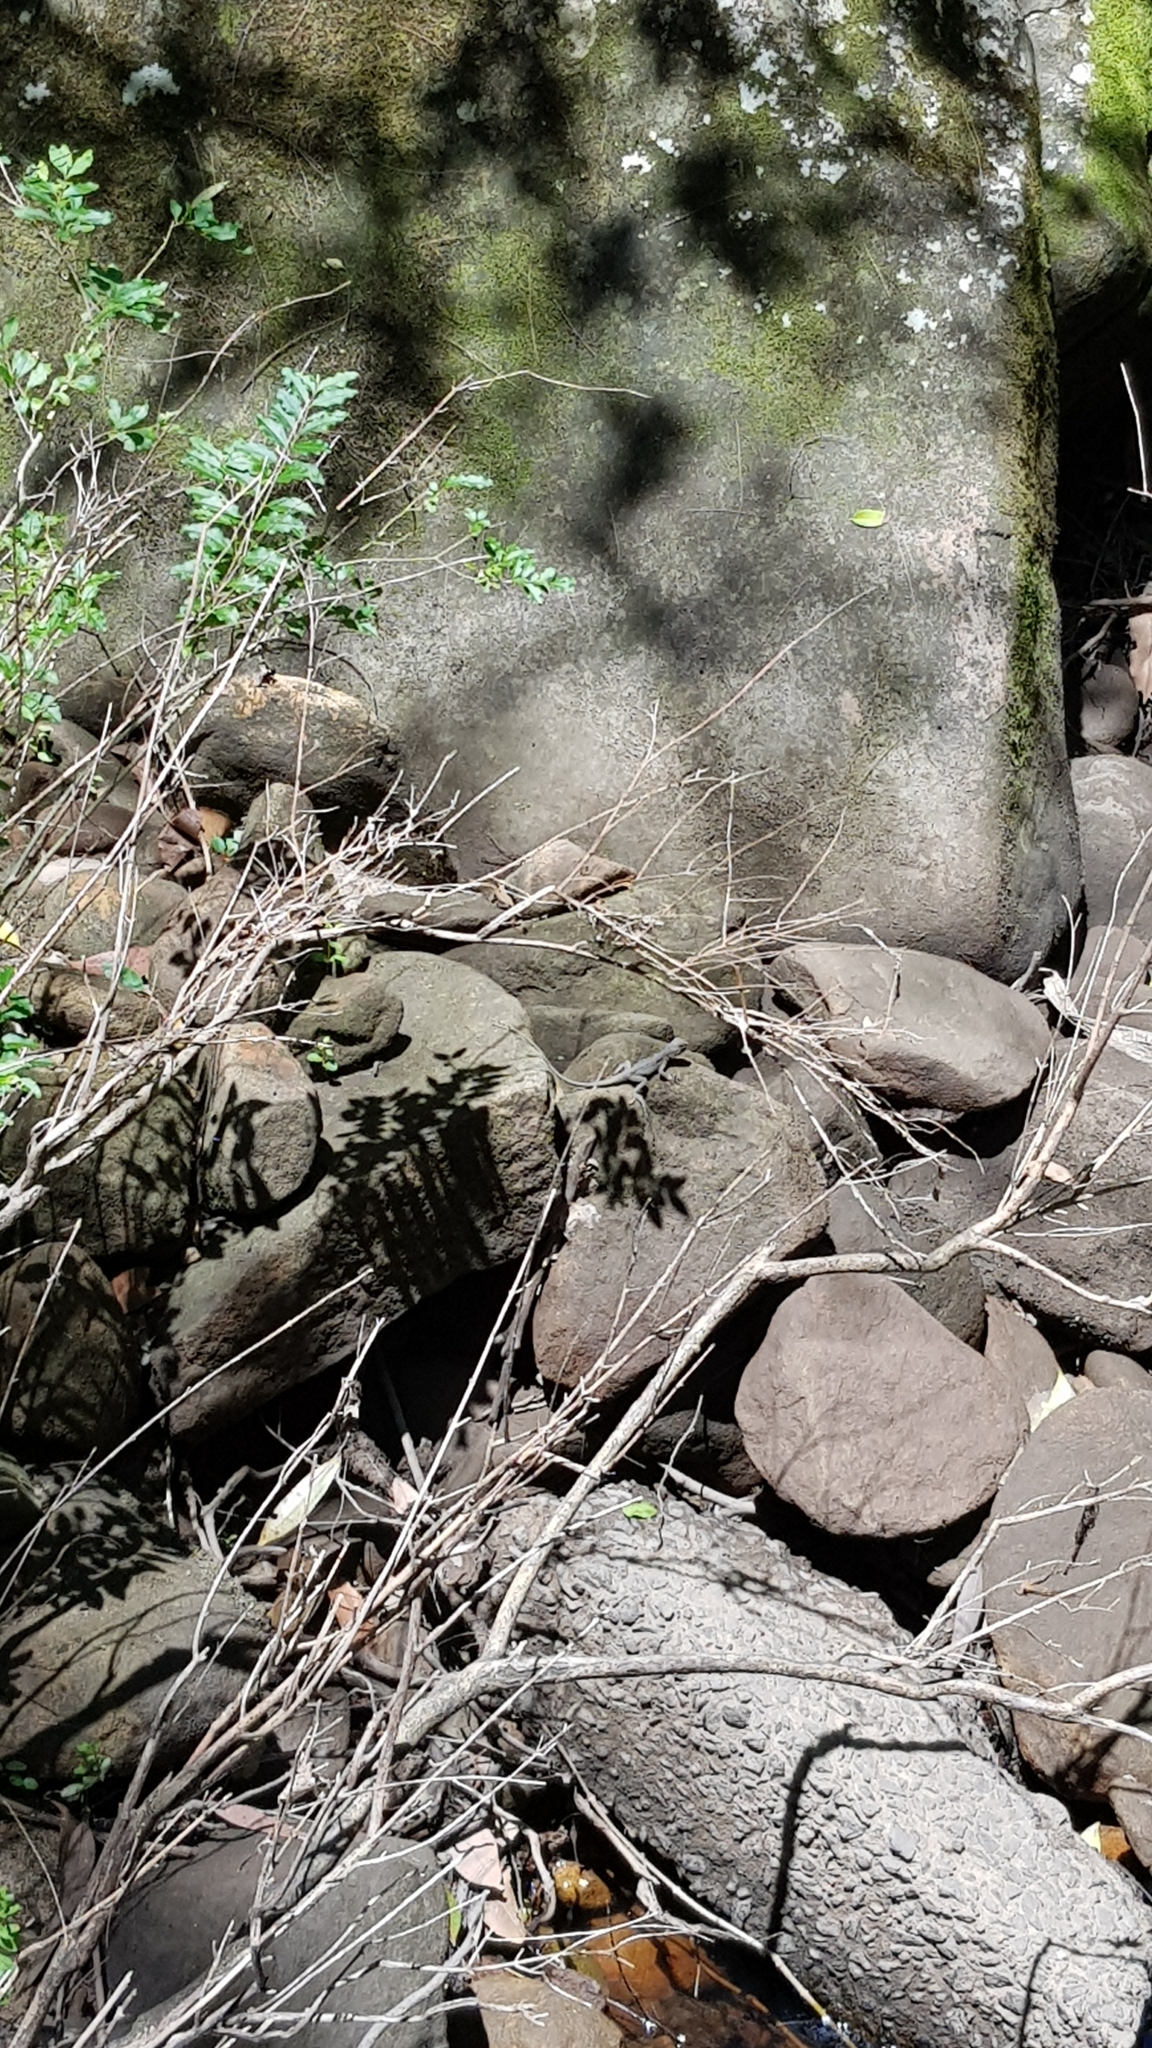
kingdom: Animalia
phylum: Chordata
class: Squamata
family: Agamidae
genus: Intellagama
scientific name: Intellagama lesueurii
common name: Eastern water dragon
